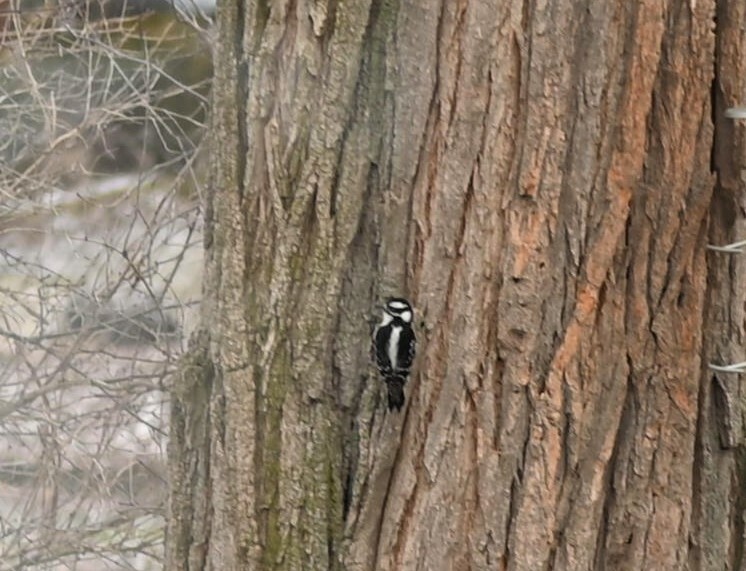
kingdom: Animalia
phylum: Chordata
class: Aves
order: Piciformes
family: Picidae
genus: Dryobates
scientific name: Dryobates pubescens
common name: Downy woodpecker
